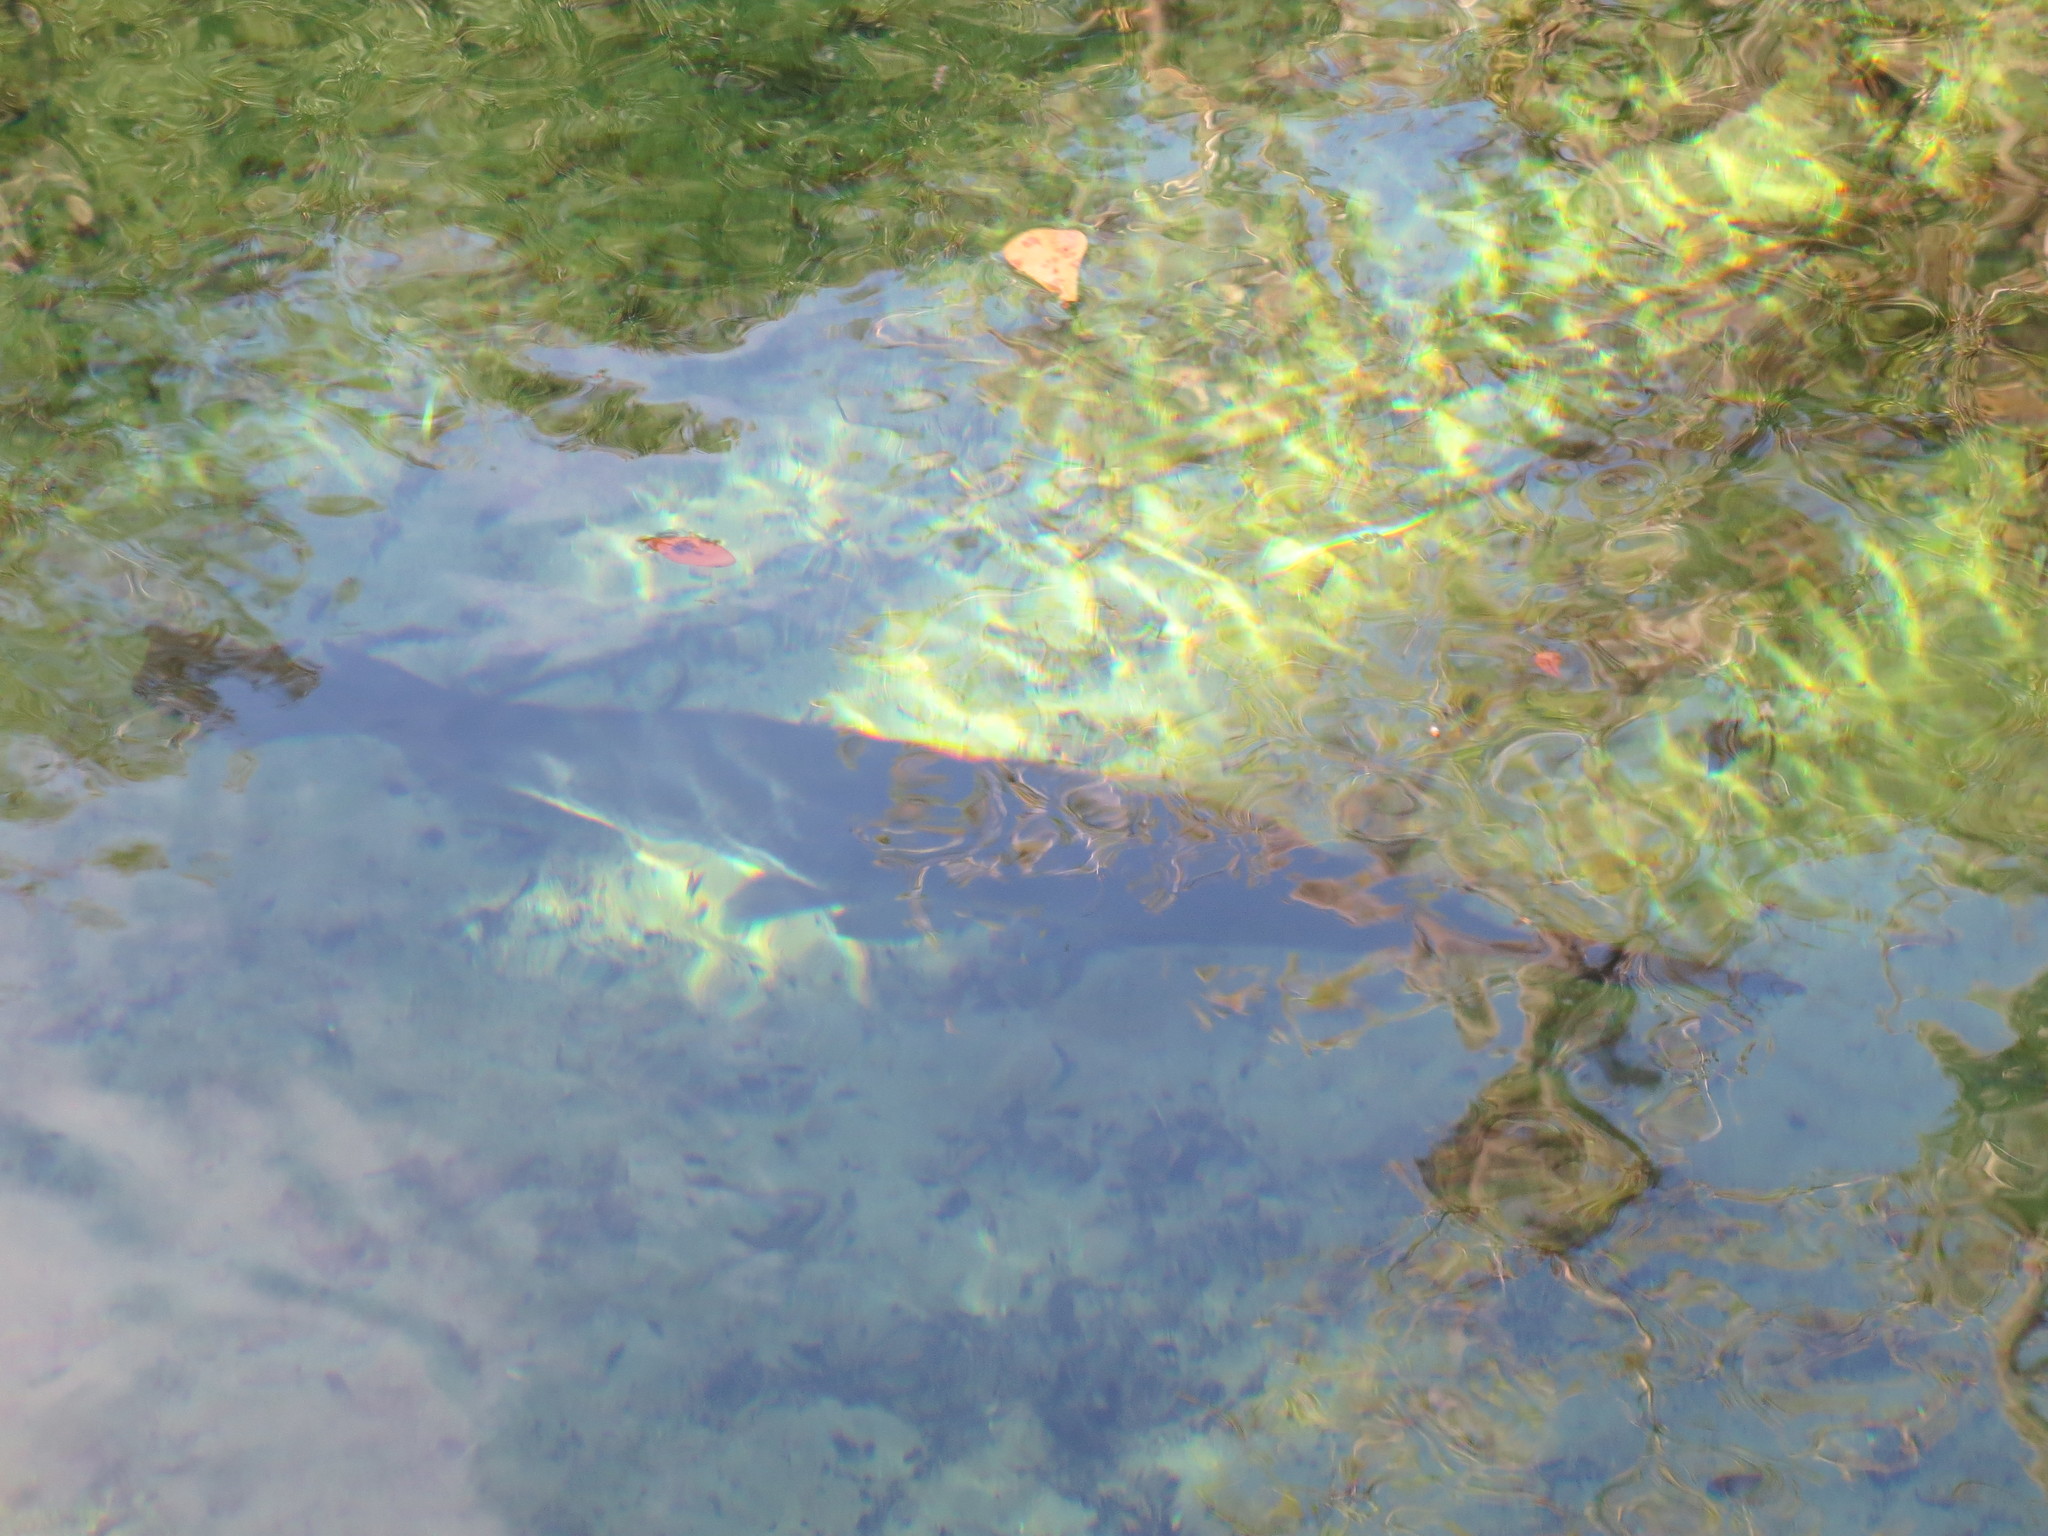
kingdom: Animalia
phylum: Chordata
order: Lepisosteiformes
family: Lepisosteidae
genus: Lepisosteus
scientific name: Lepisosteus osseus
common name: Longnose gar
